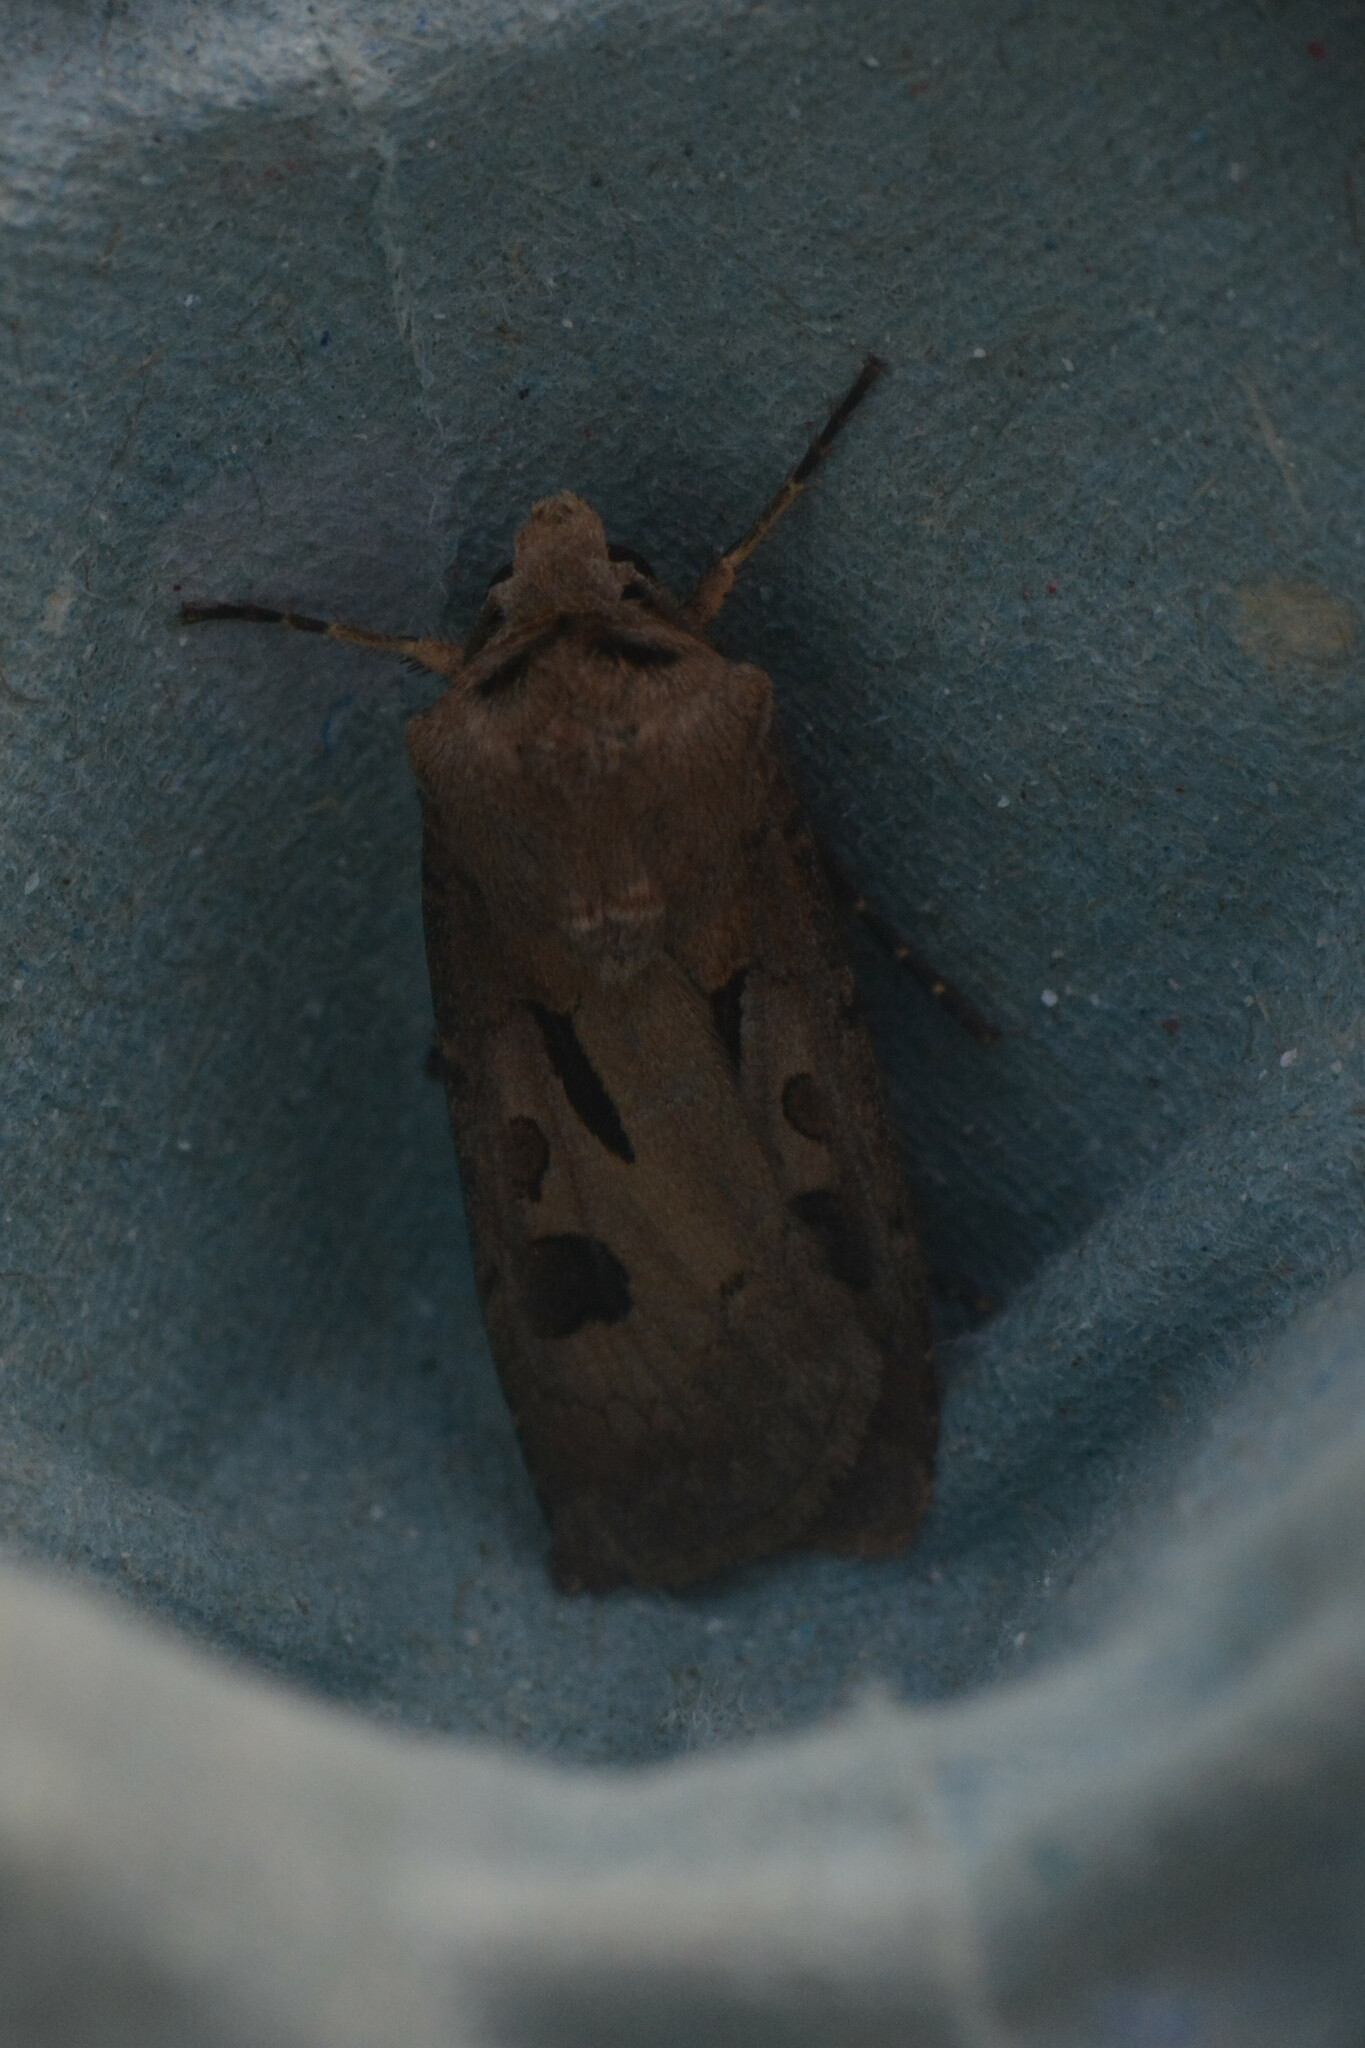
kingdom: Animalia
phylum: Arthropoda
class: Insecta
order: Lepidoptera
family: Noctuidae
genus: Agrotis
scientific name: Agrotis exclamationis
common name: Heart and dart
